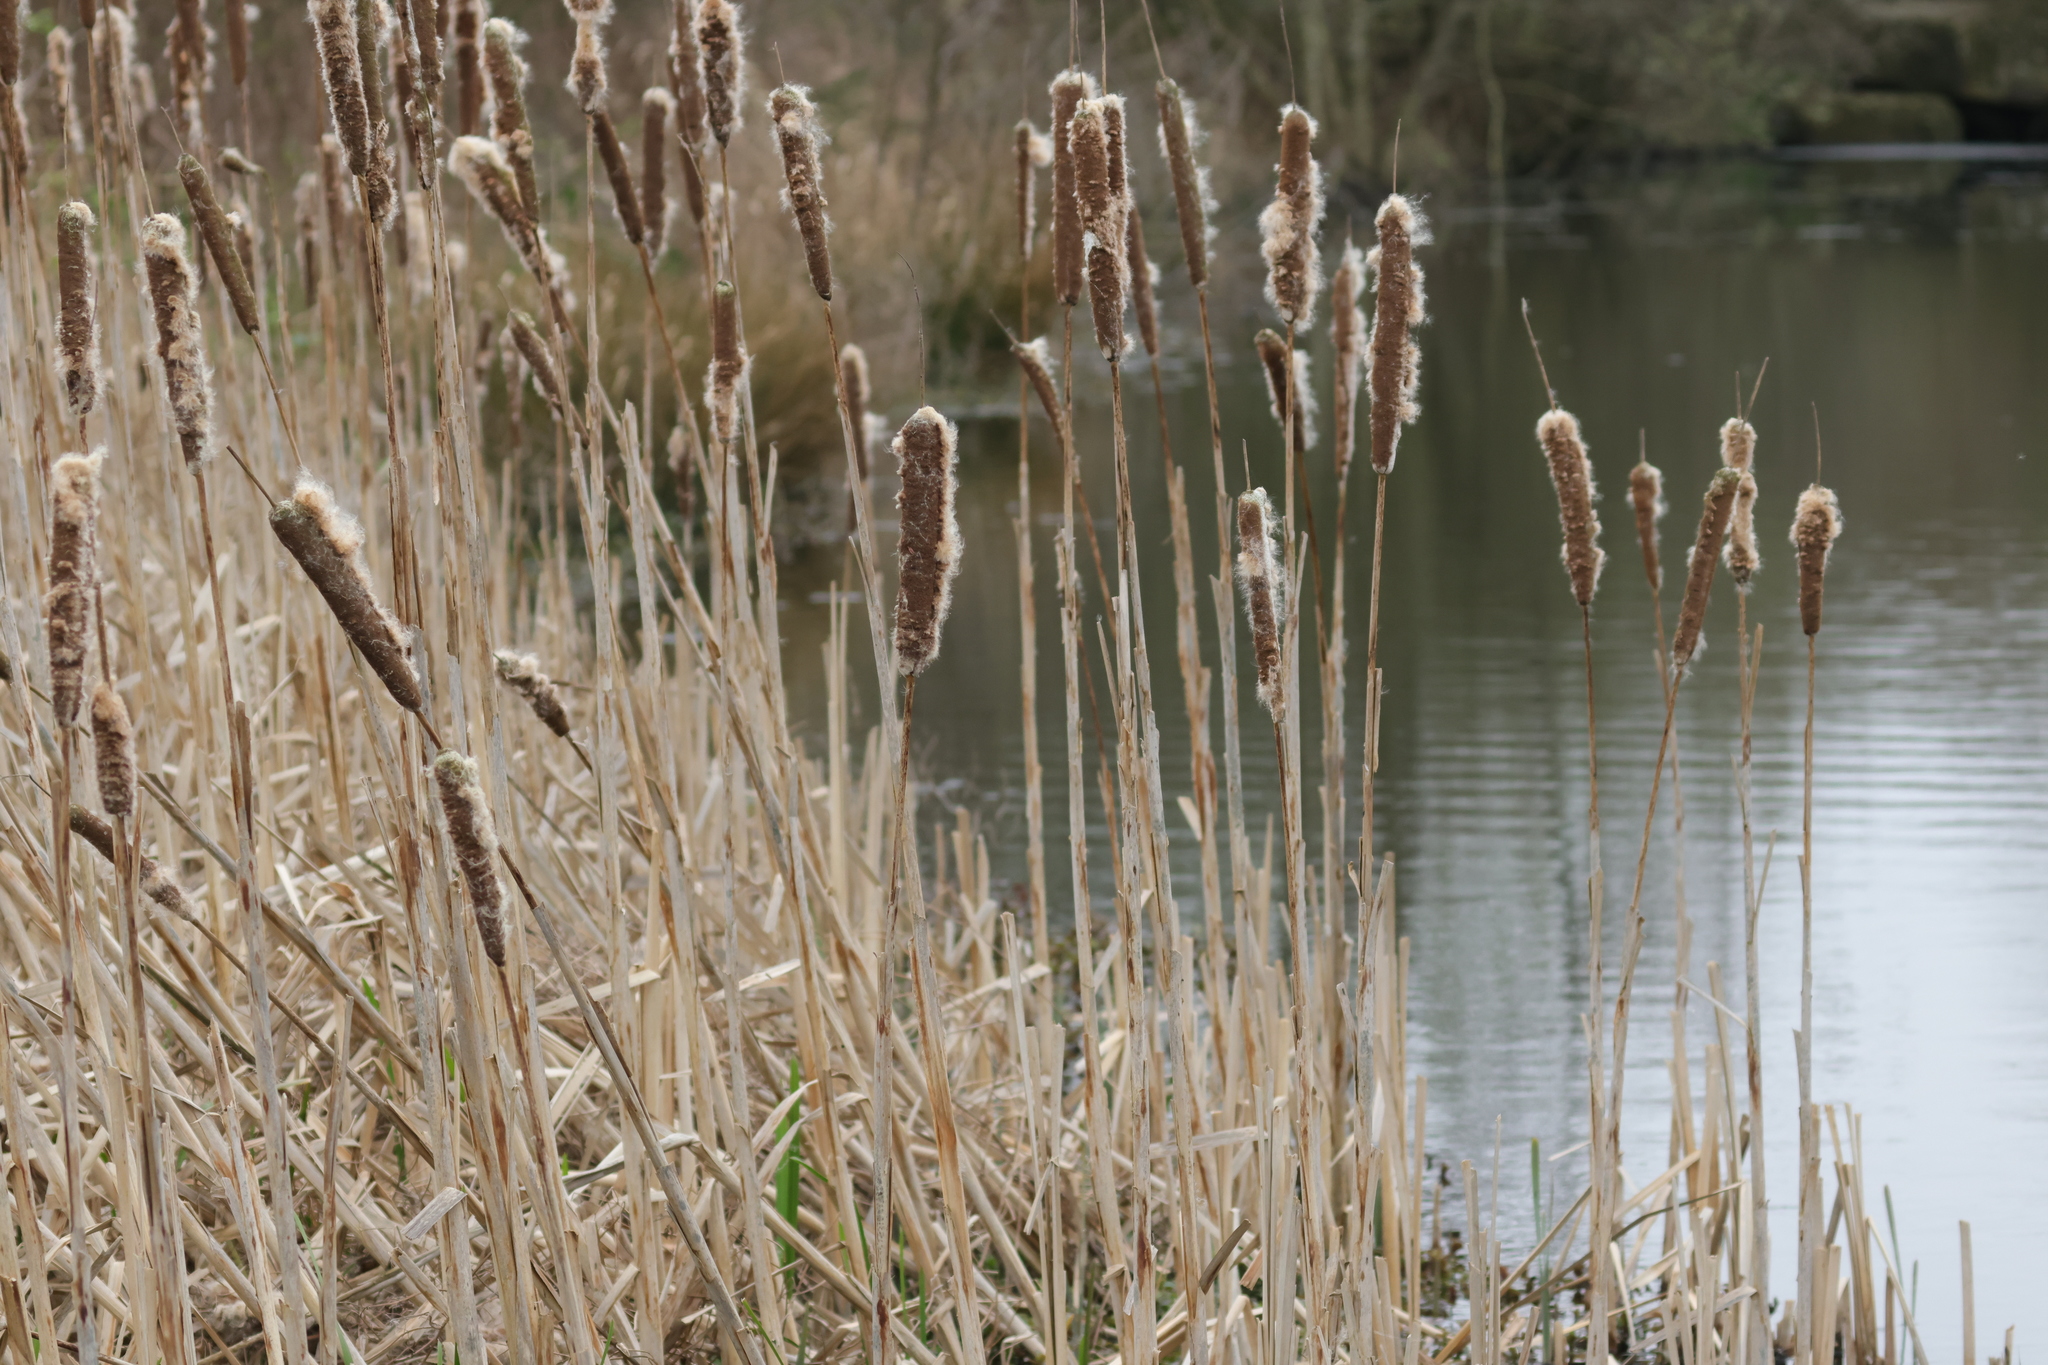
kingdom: Plantae
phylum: Tracheophyta
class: Liliopsida
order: Poales
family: Typhaceae
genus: Typha
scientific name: Typha latifolia
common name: Broadleaf cattail
